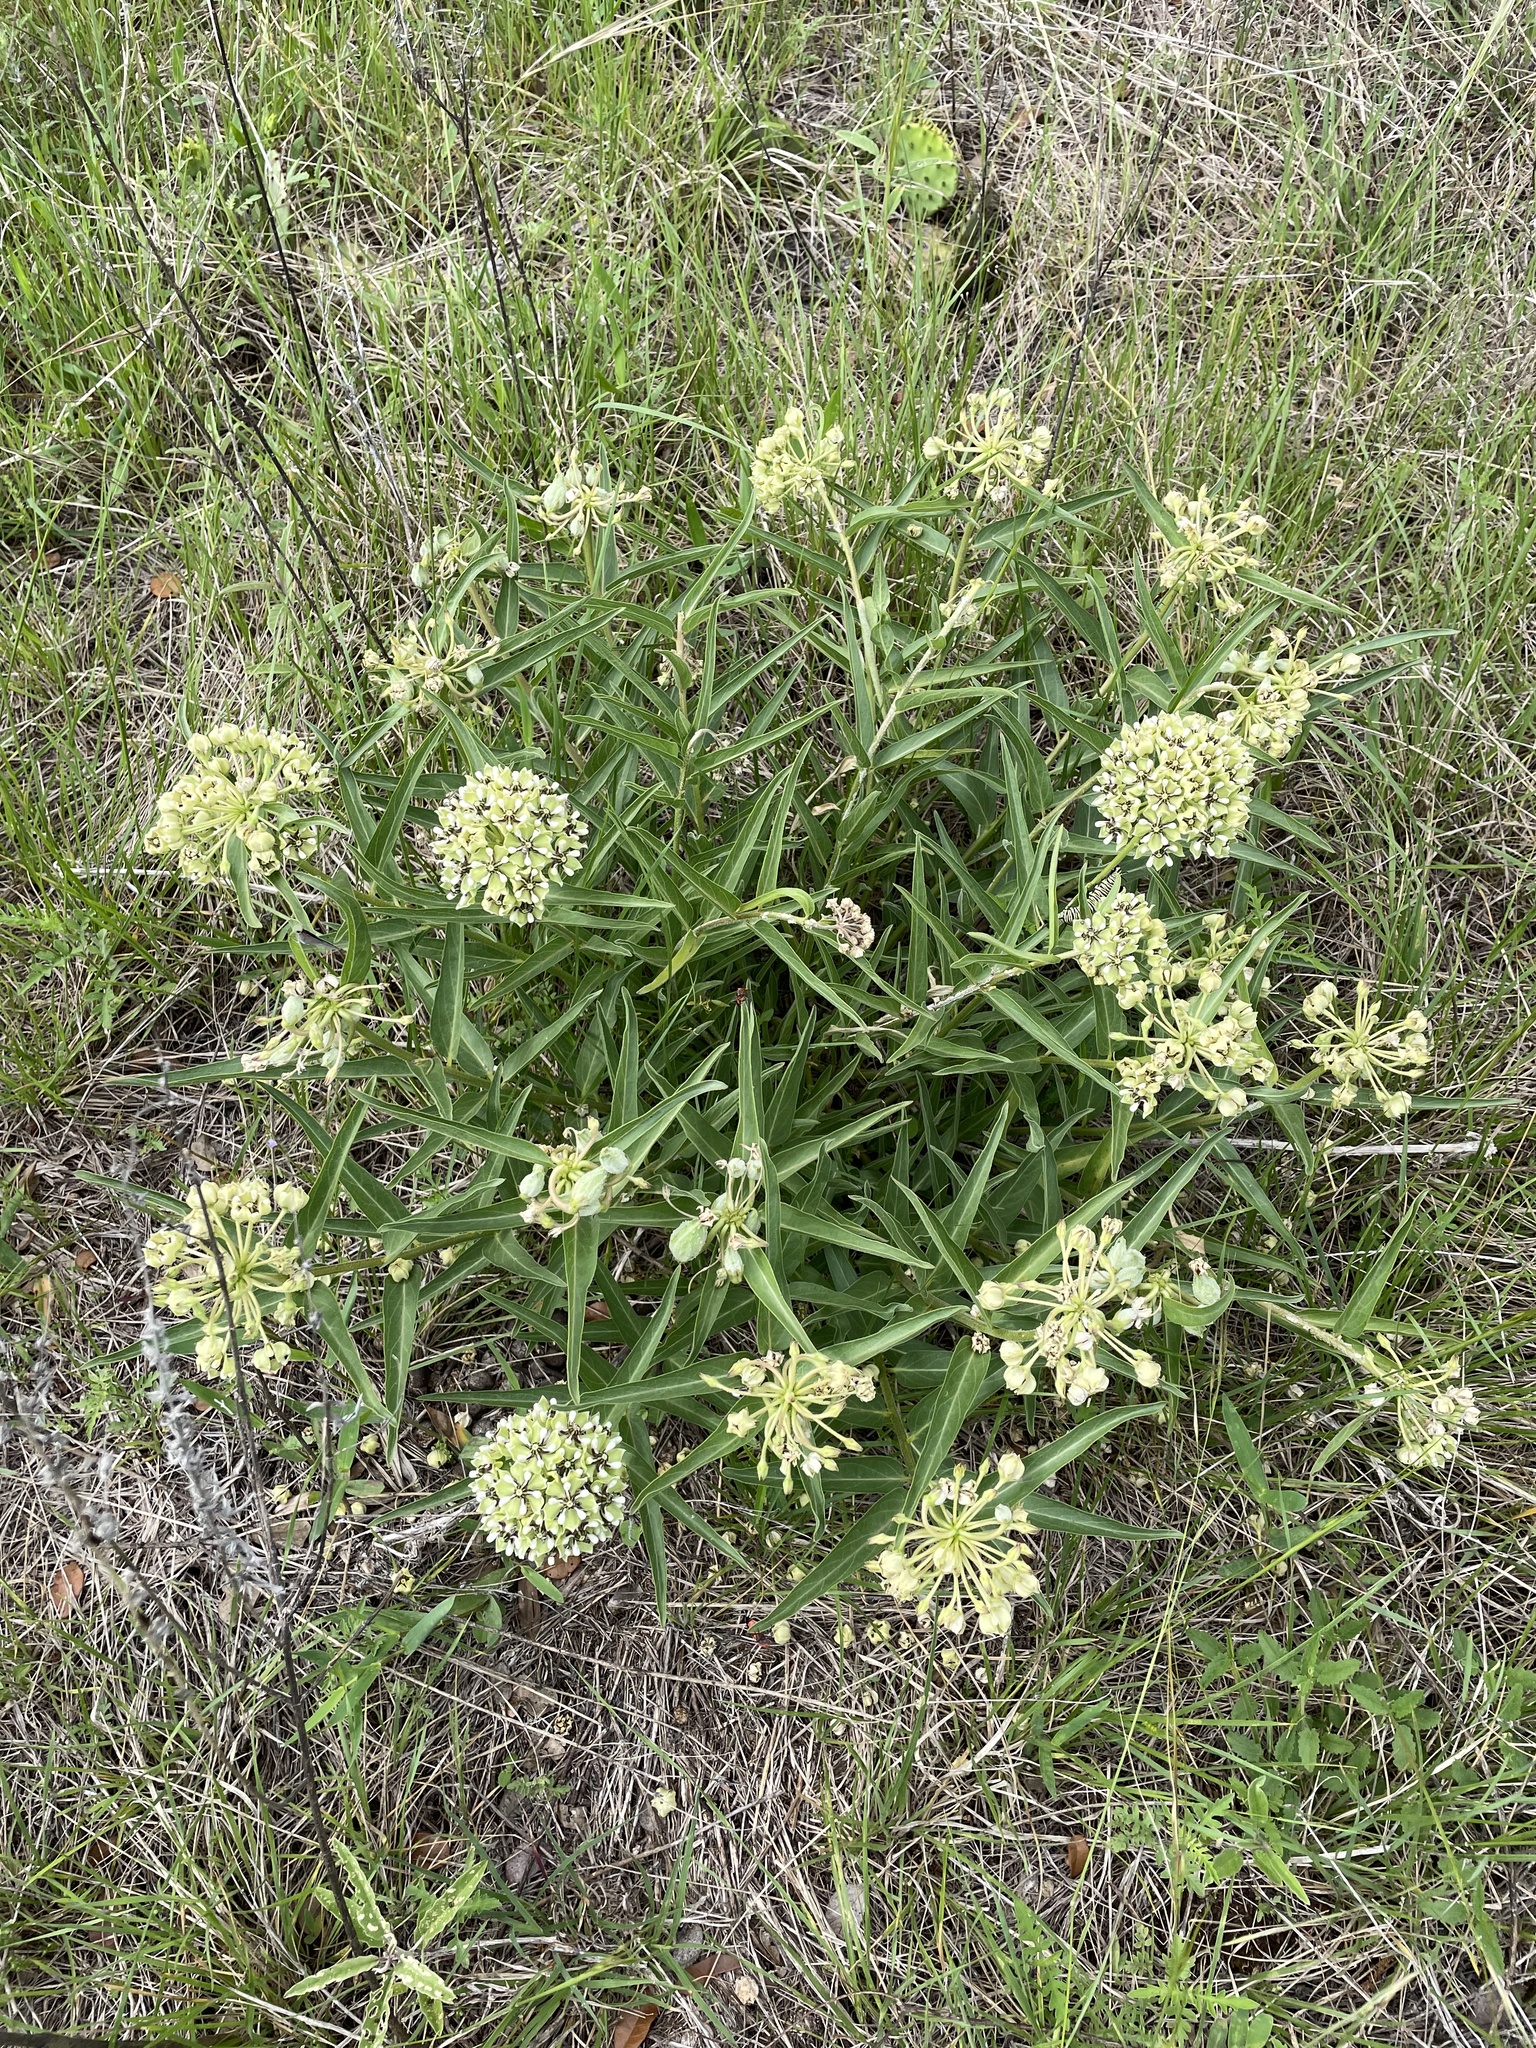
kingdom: Plantae
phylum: Tracheophyta
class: Magnoliopsida
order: Gentianales
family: Apocynaceae
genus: Asclepias
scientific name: Asclepias asperula
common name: Antelope horns
